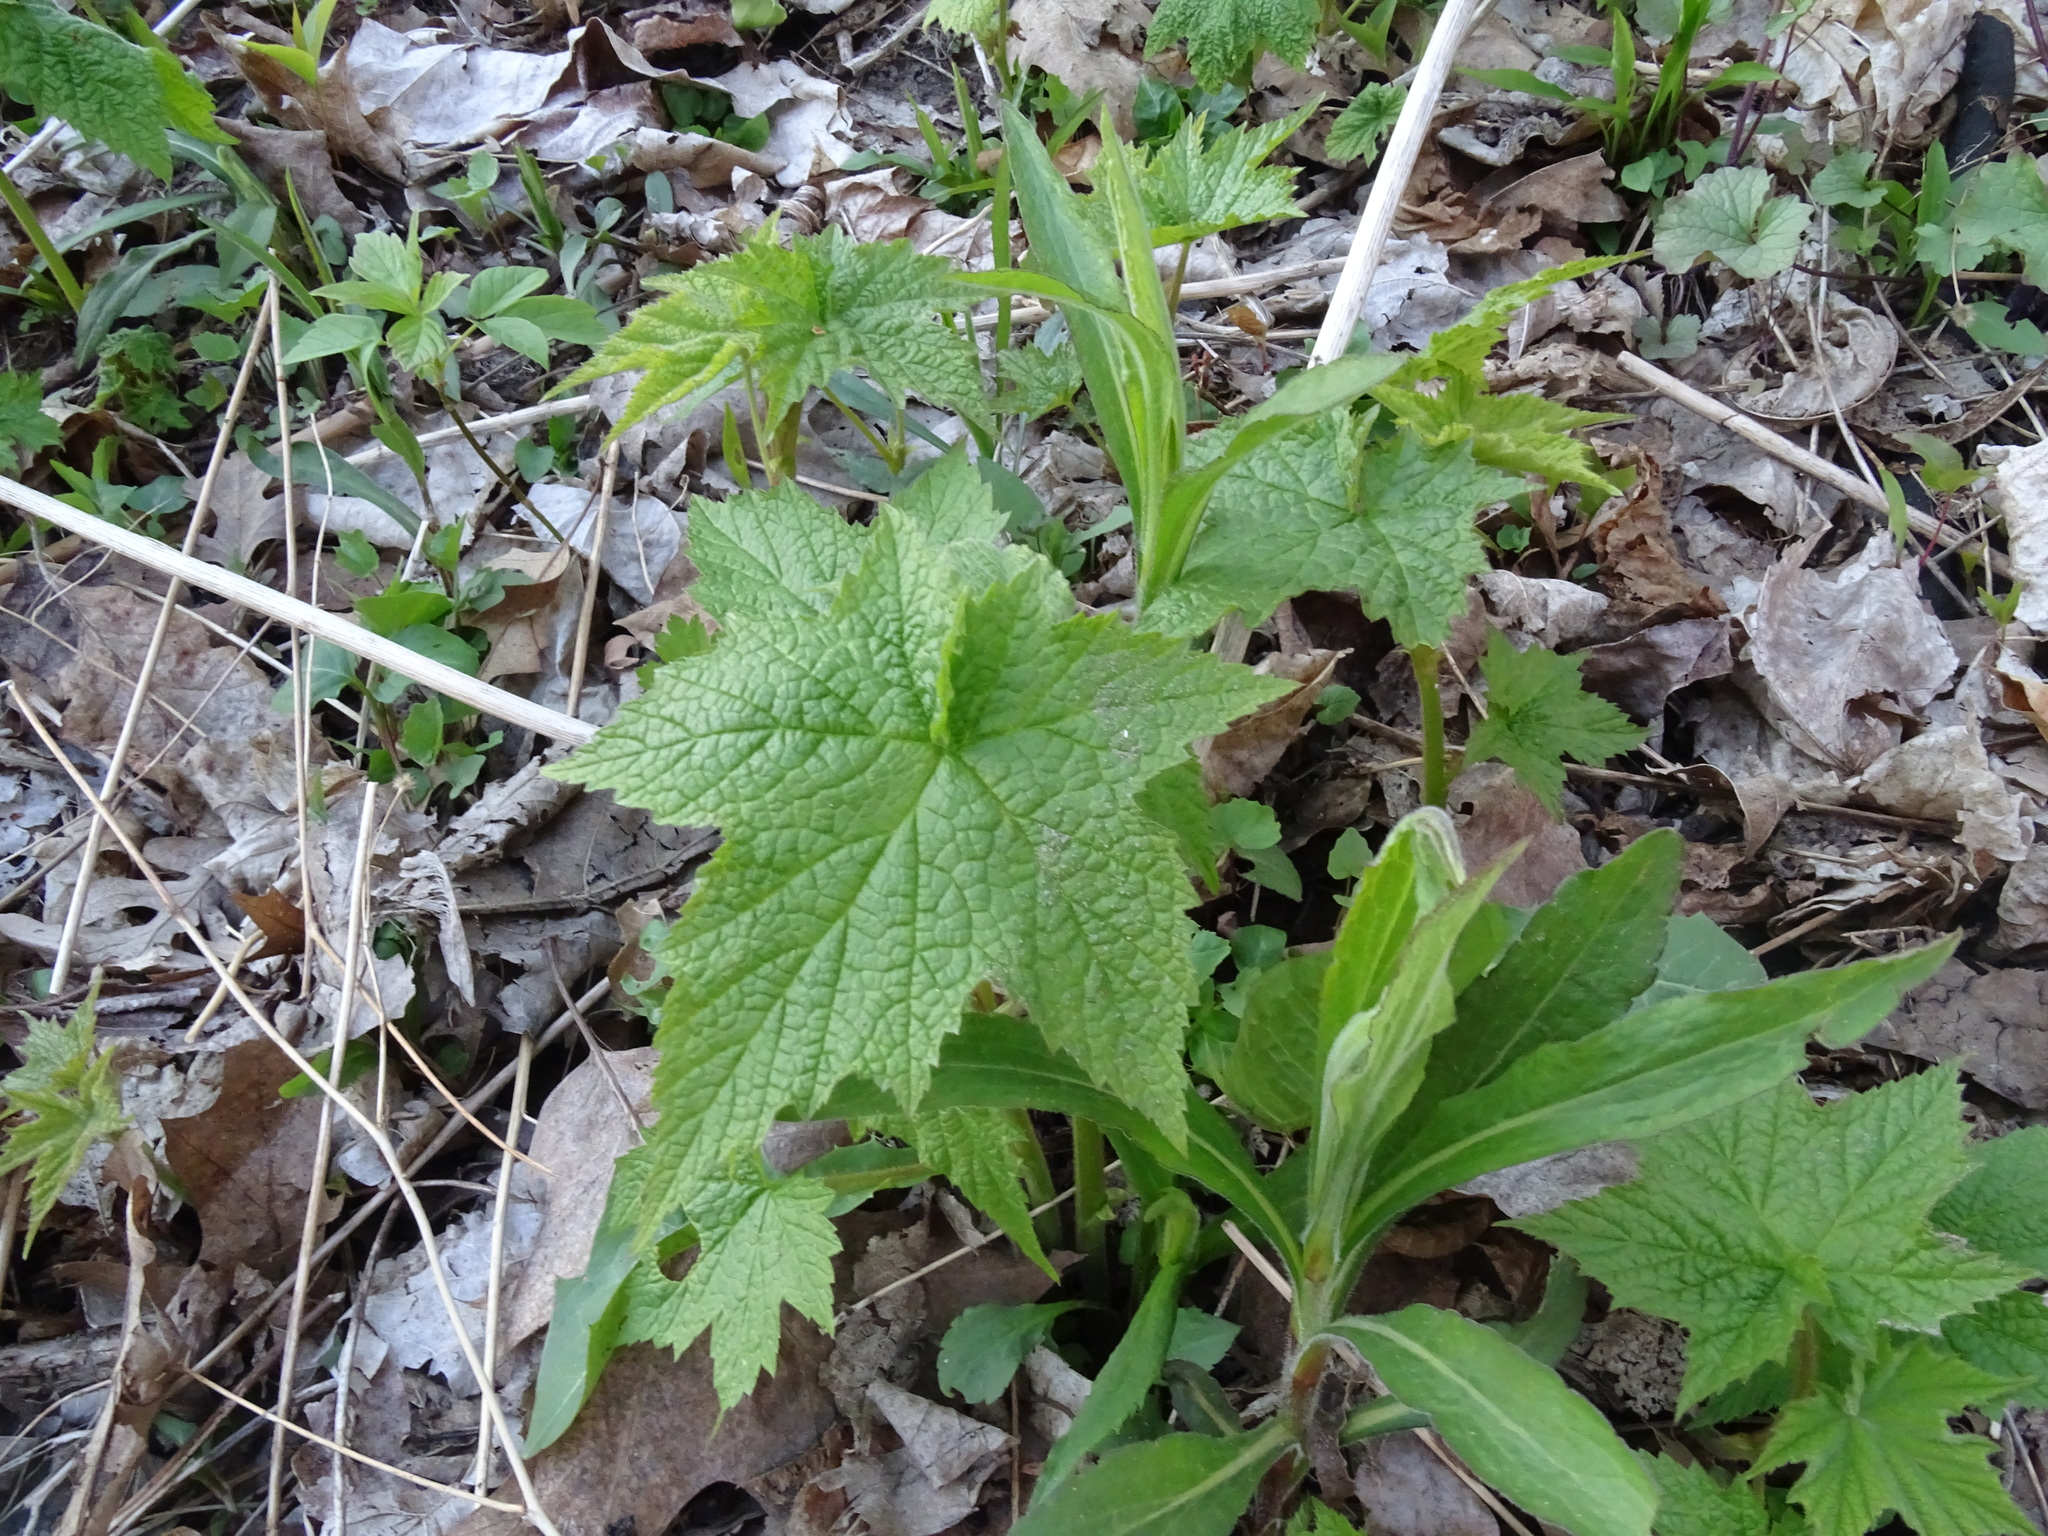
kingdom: Plantae
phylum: Tracheophyta
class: Magnoliopsida
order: Rosales
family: Rosaceae
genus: Rubus
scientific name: Rubus odoratus
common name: Purple-flowered raspberry
